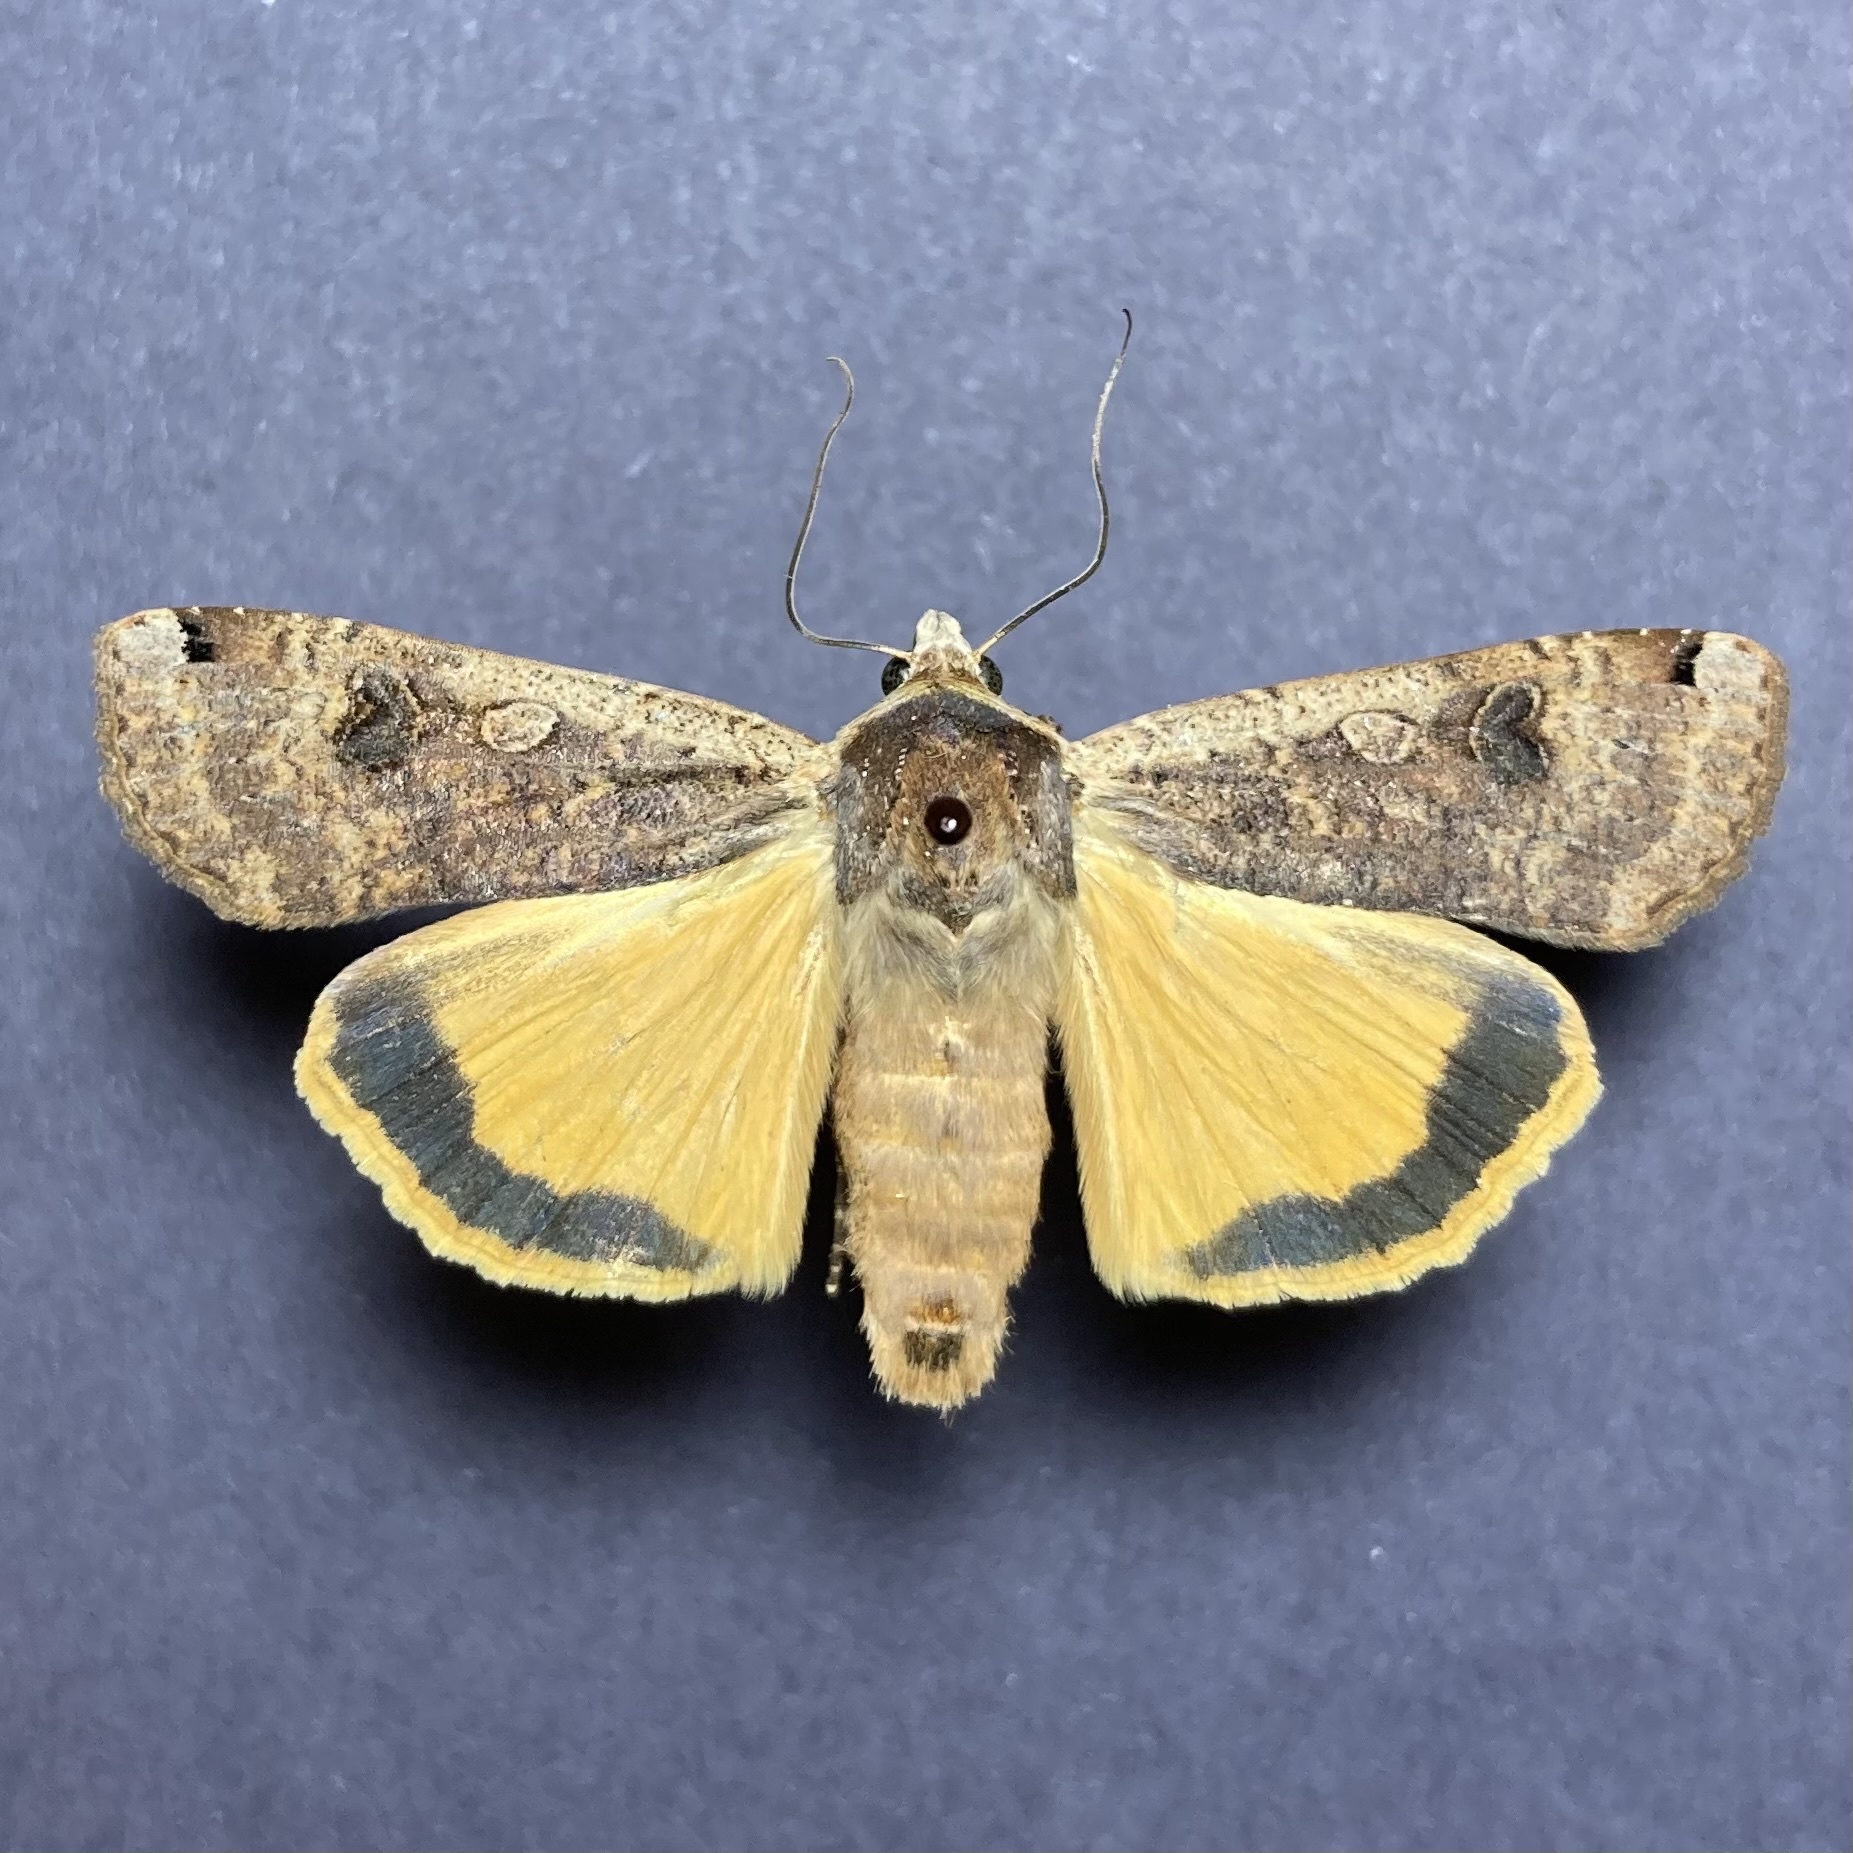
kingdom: Animalia
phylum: Arthropoda
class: Insecta
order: Lepidoptera
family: Noctuidae
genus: Noctua
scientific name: Noctua pronuba
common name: Large yellow underwing
